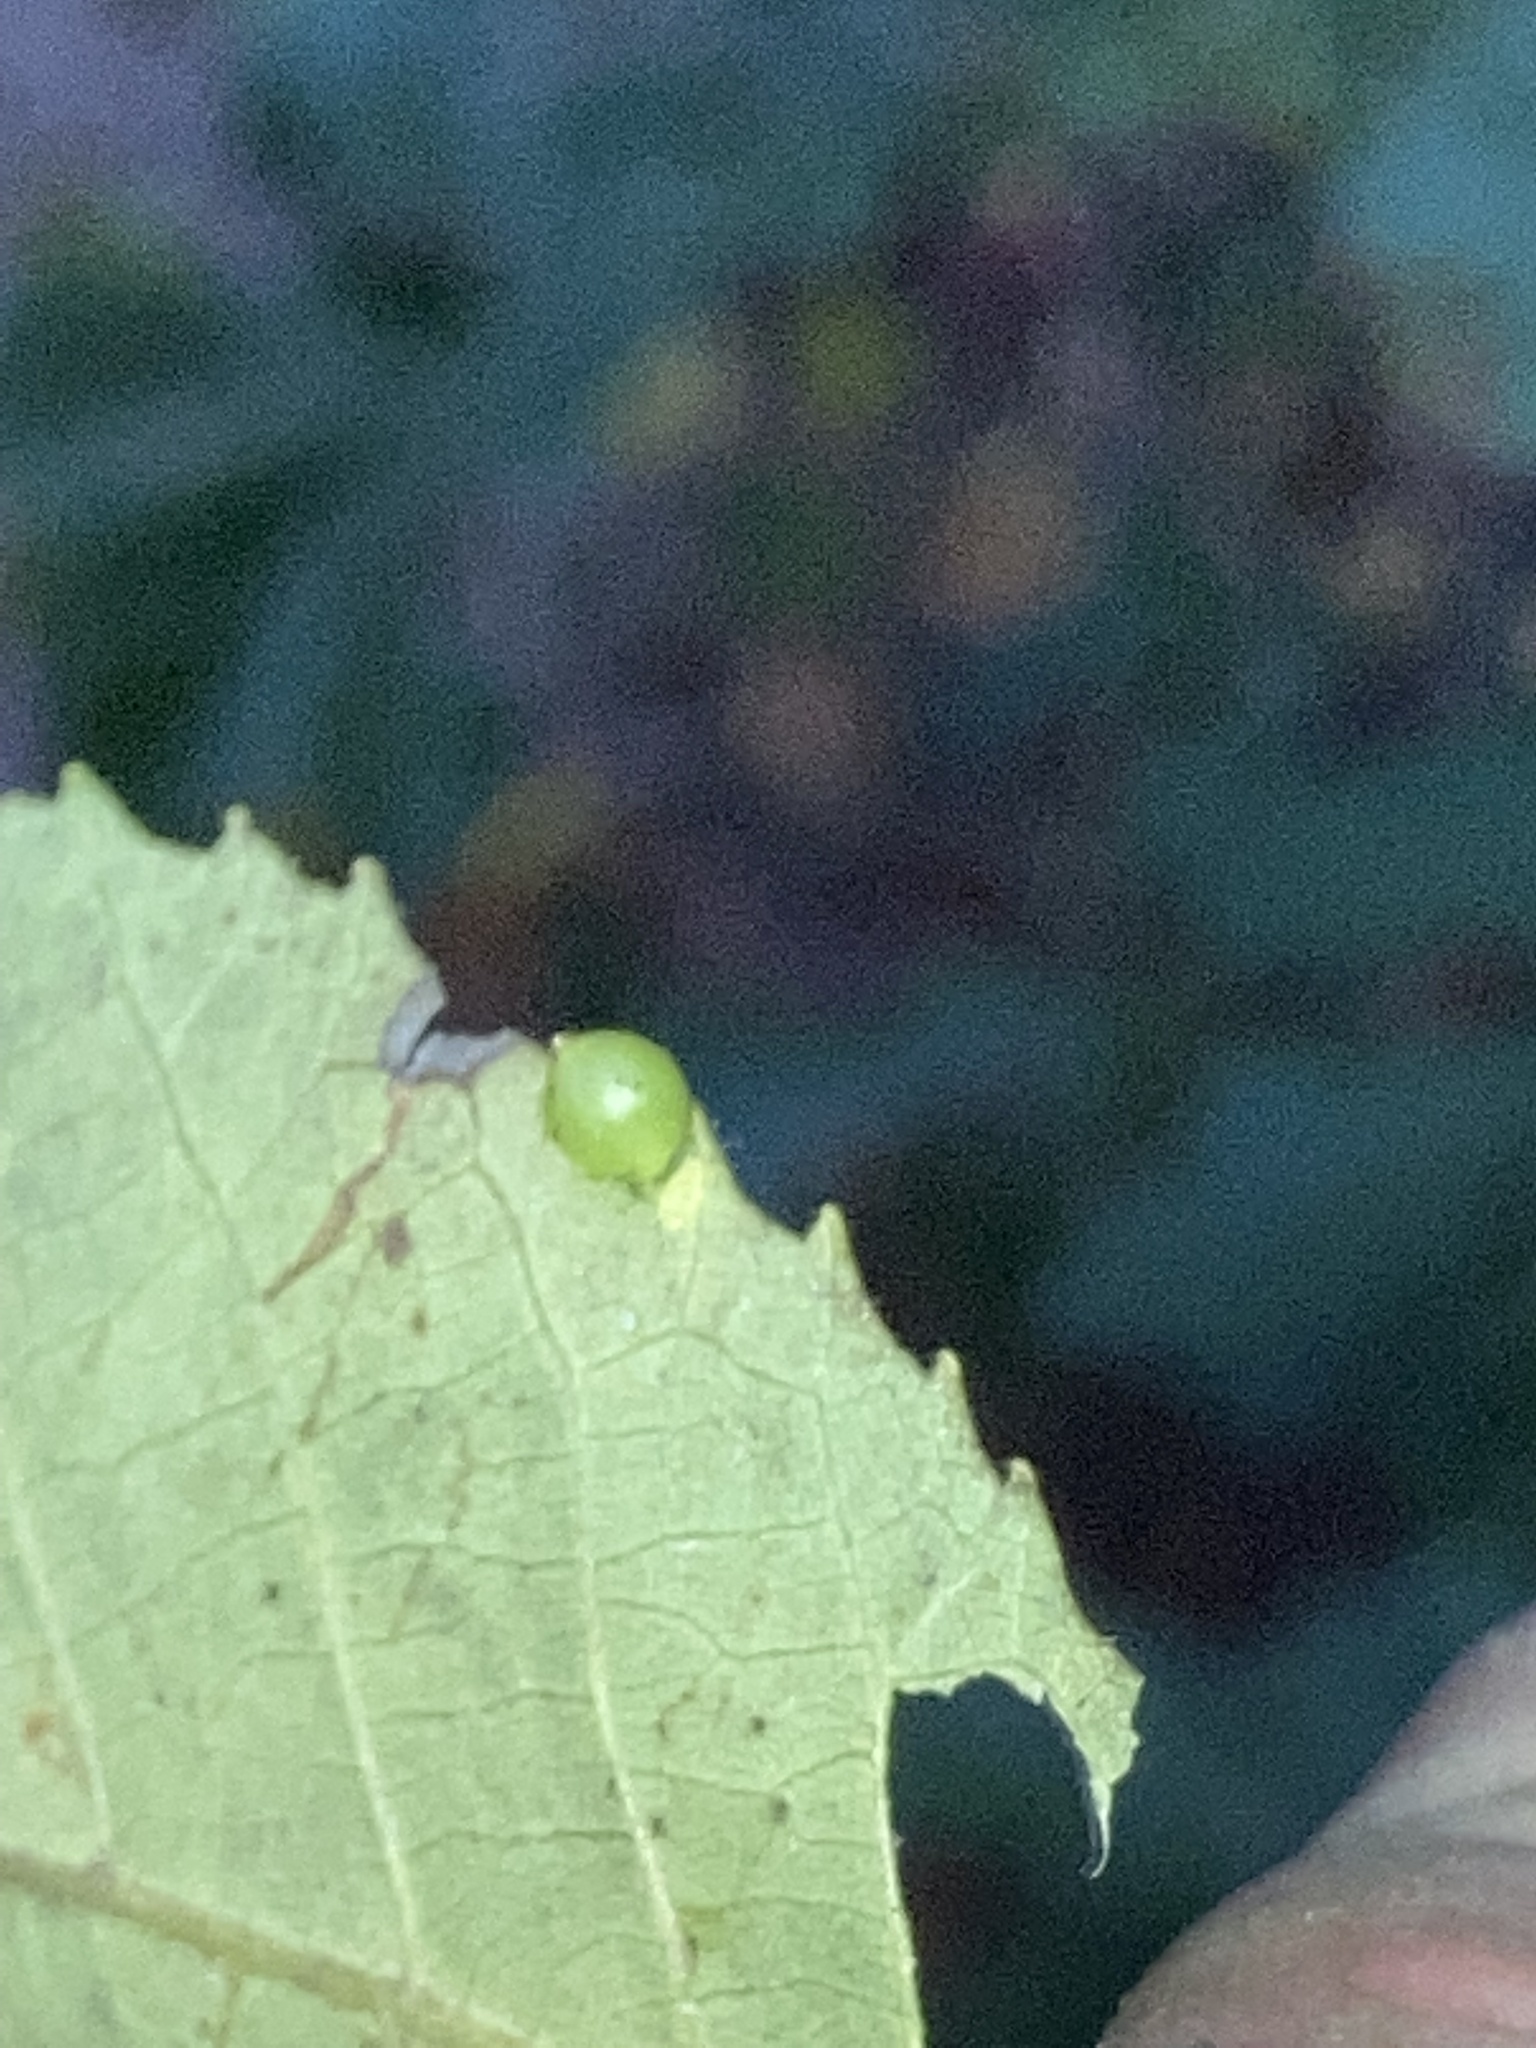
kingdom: Animalia
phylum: Arthropoda
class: Insecta
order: Diptera
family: Cecidomyiidae
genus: Caryomyia
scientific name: Caryomyia leviglobus
